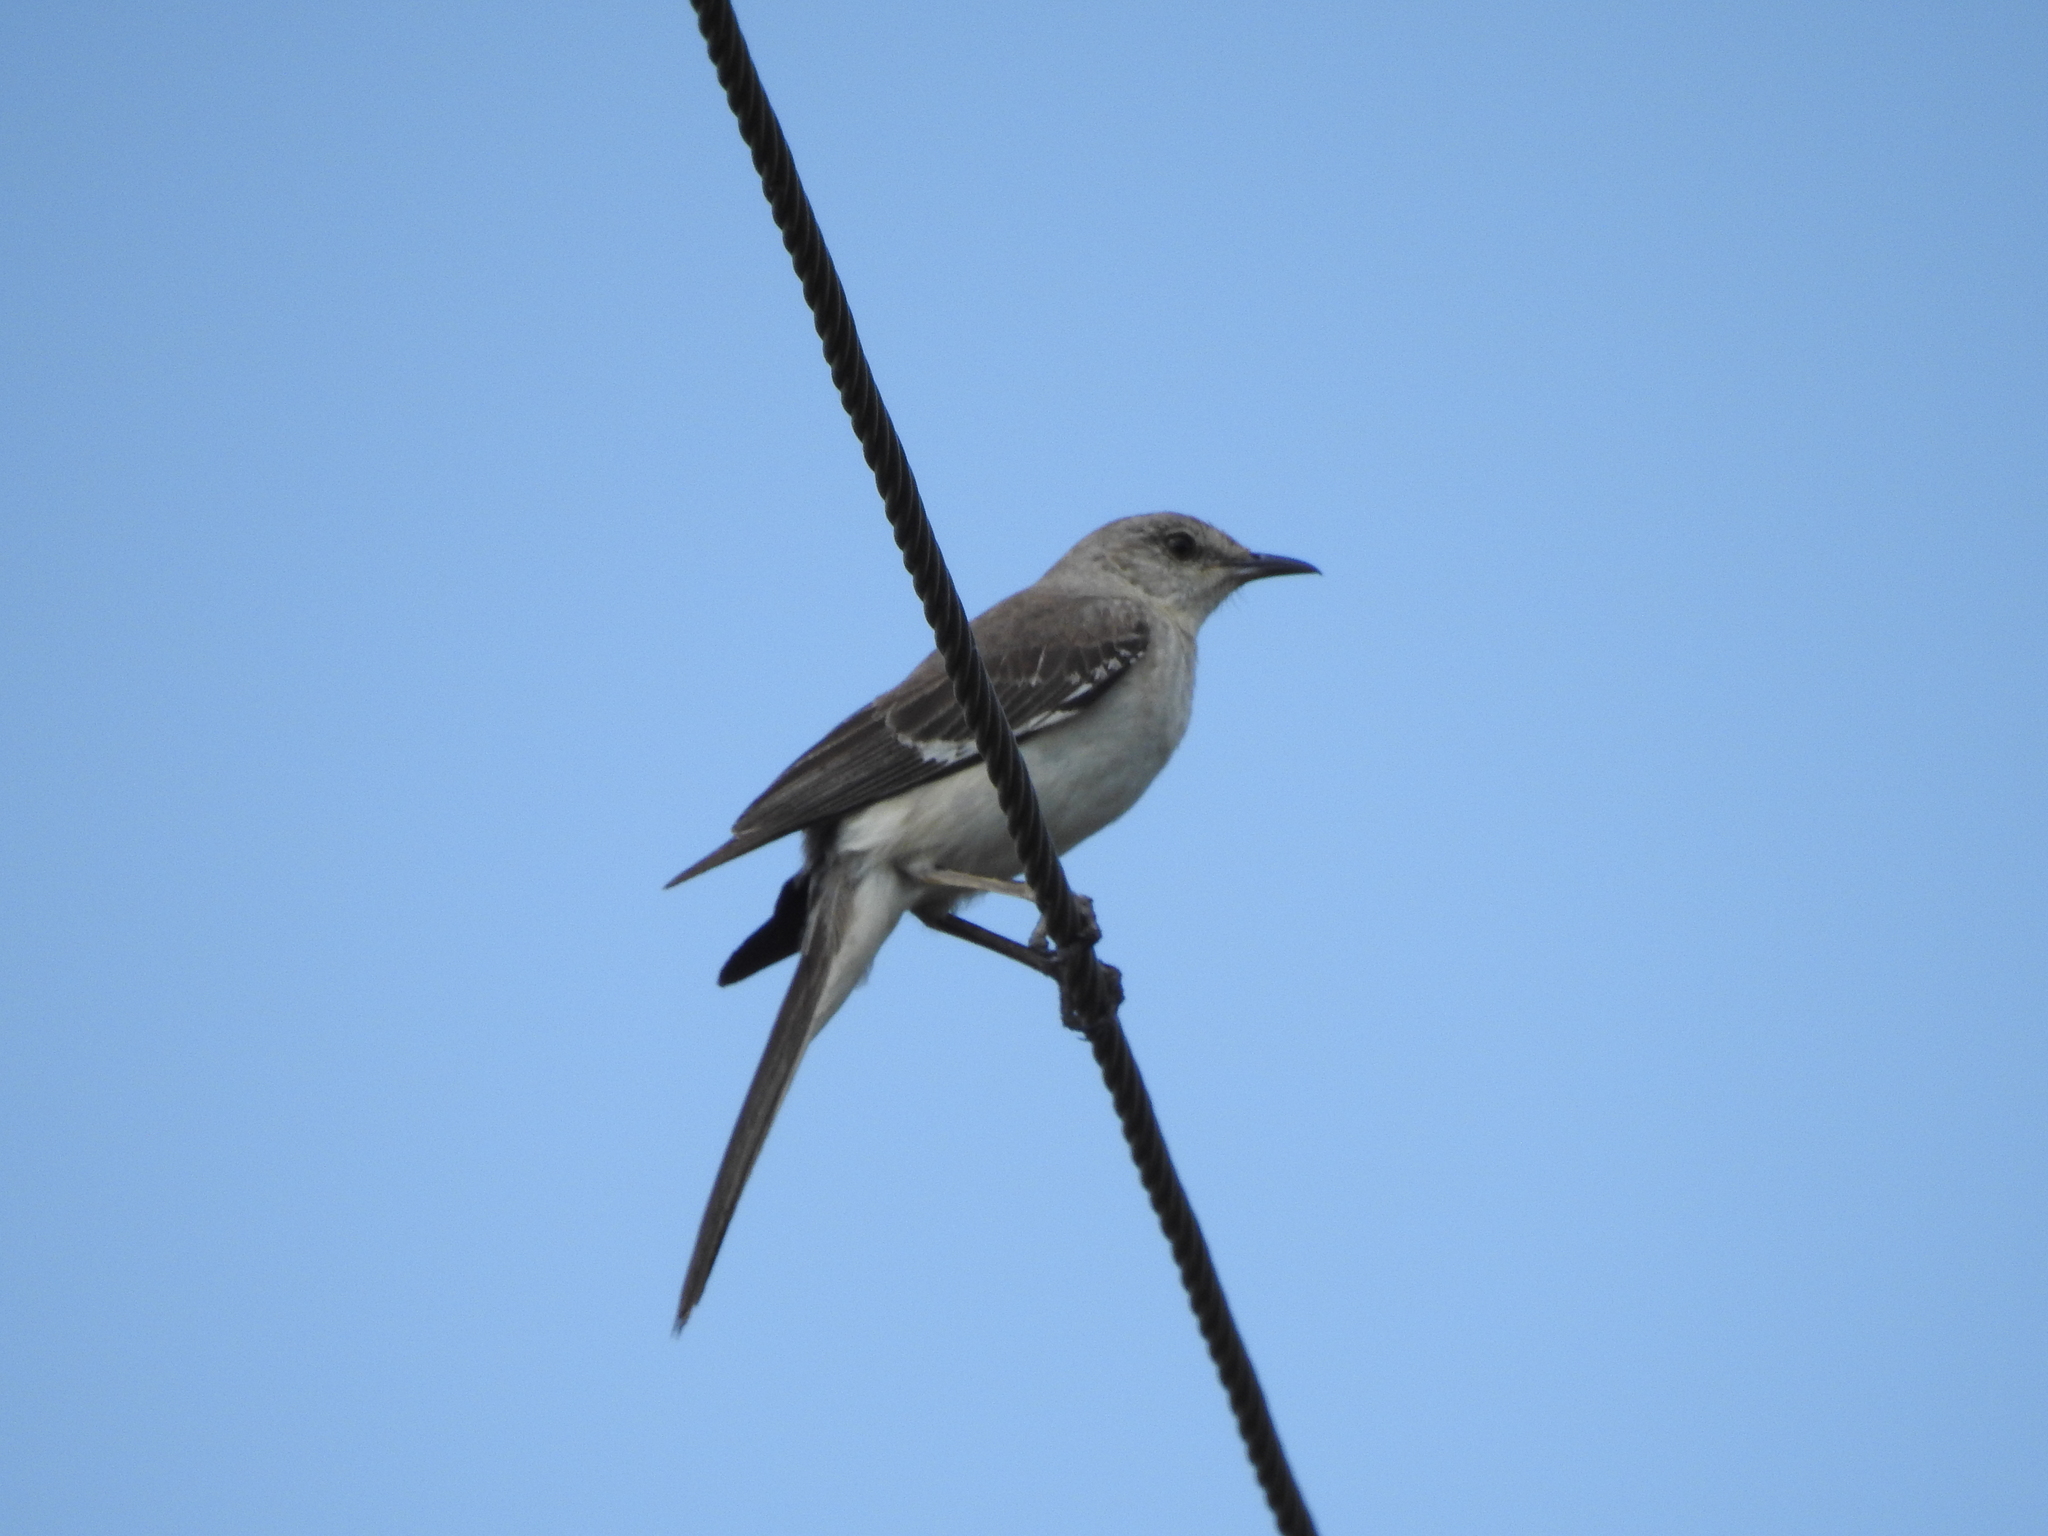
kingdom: Animalia
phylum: Chordata
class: Aves
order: Passeriformes
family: Mimidae
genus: Mimus
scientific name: Mimus polyglottos
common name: Northern mockingbird
